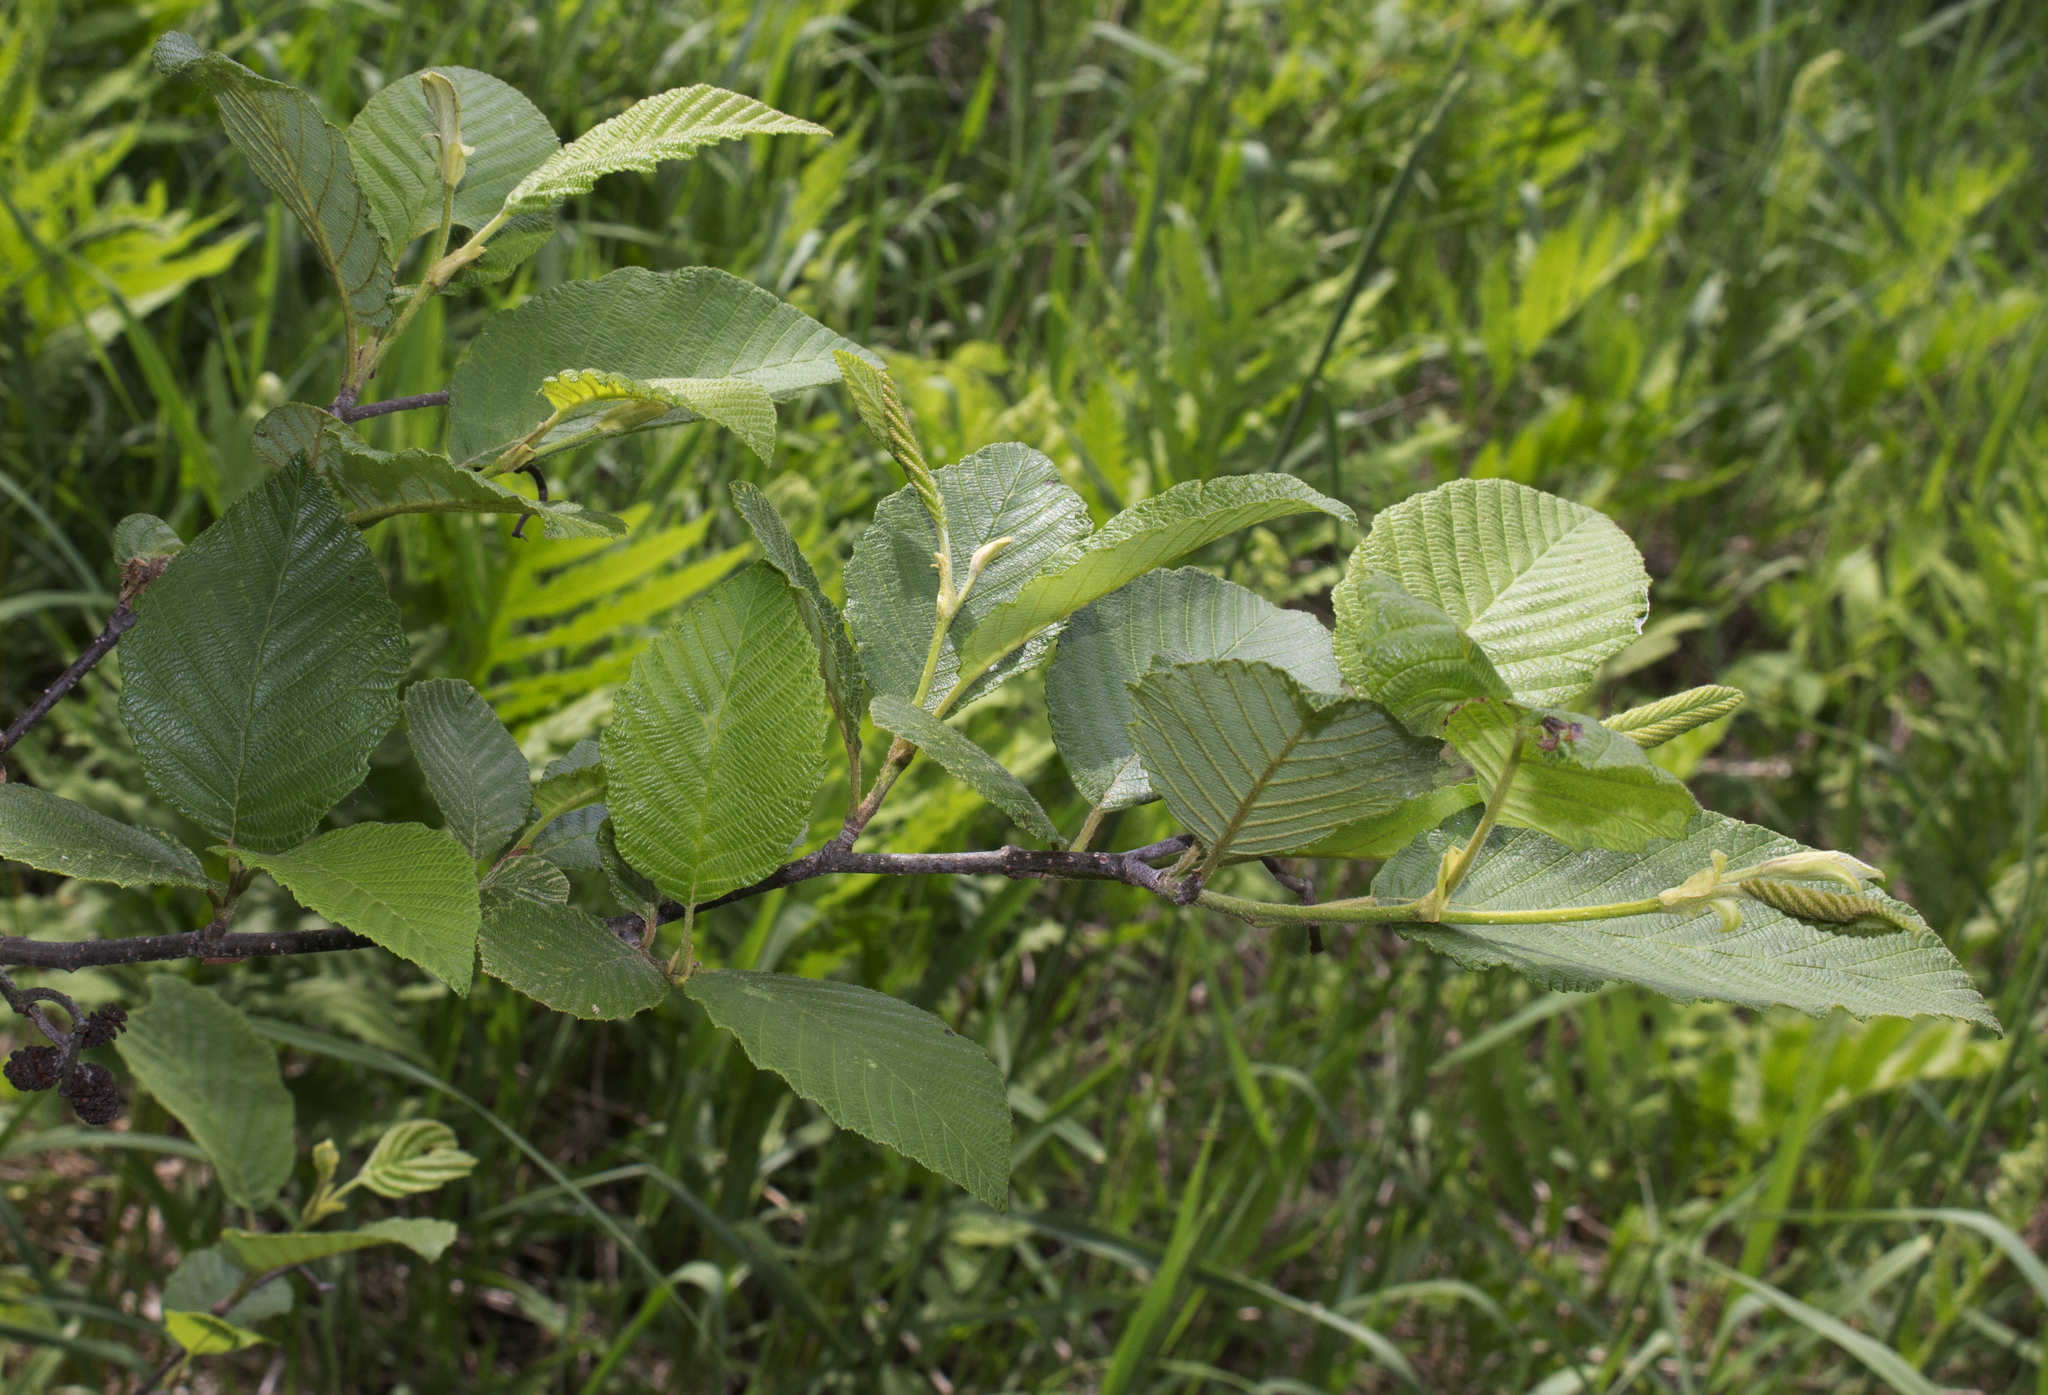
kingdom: Plantae
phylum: Tracheophyta
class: Magnoliopsida
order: Fagales
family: Betulaceae
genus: Alnus
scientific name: Alnus incana
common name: Grey alder
